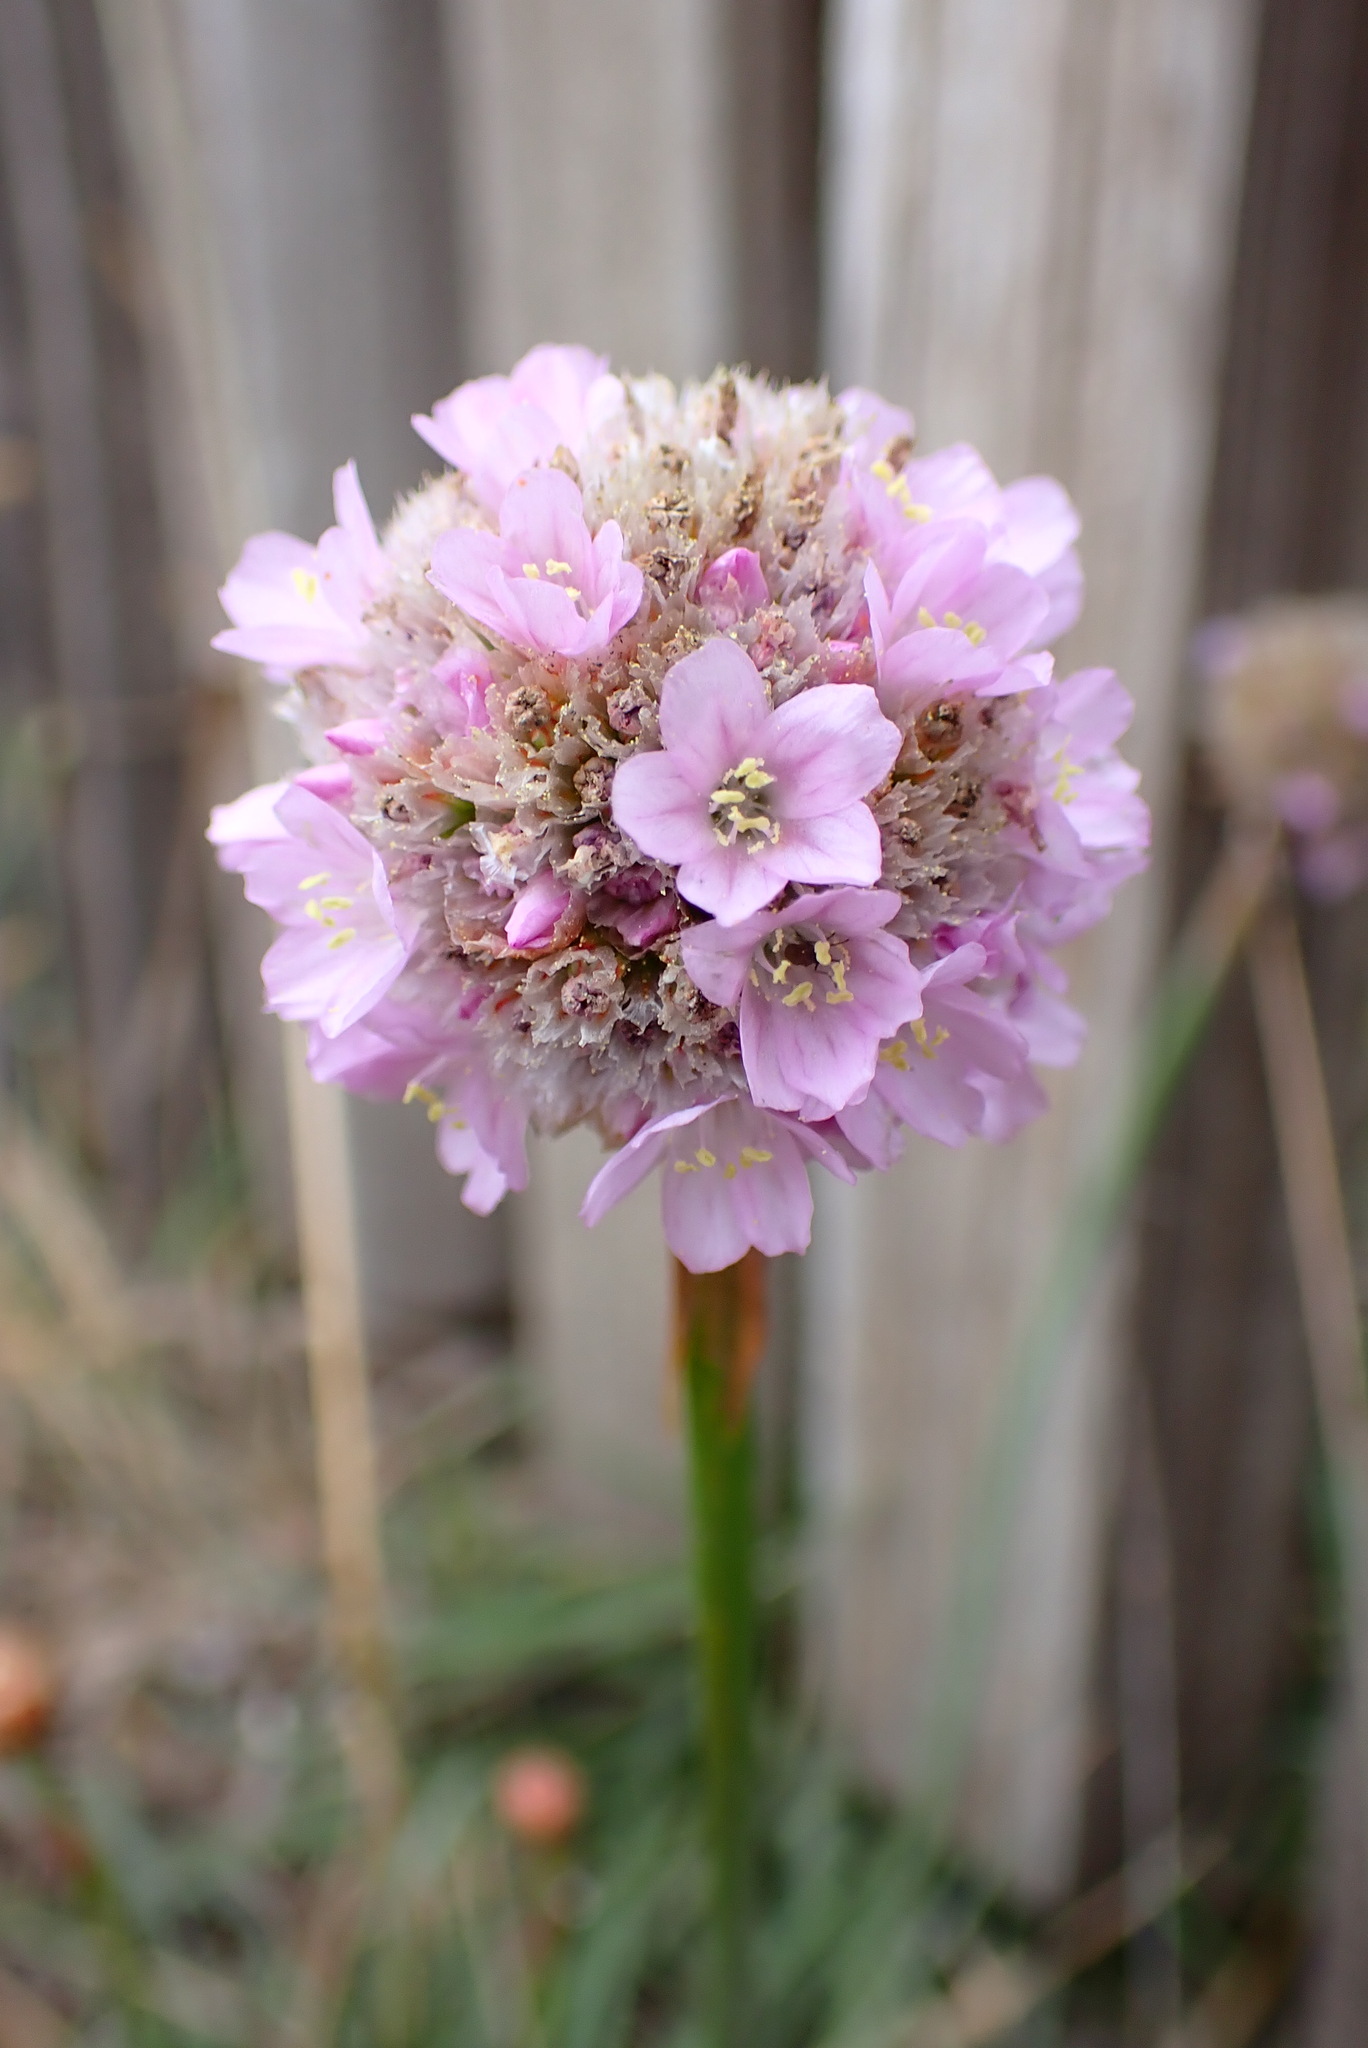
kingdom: Plantae
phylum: Tracheophyta
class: Magnoliopsida
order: Caryophyllales
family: Plumbaginaceae
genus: Armeria
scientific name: Armeria maritima
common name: Thrift
